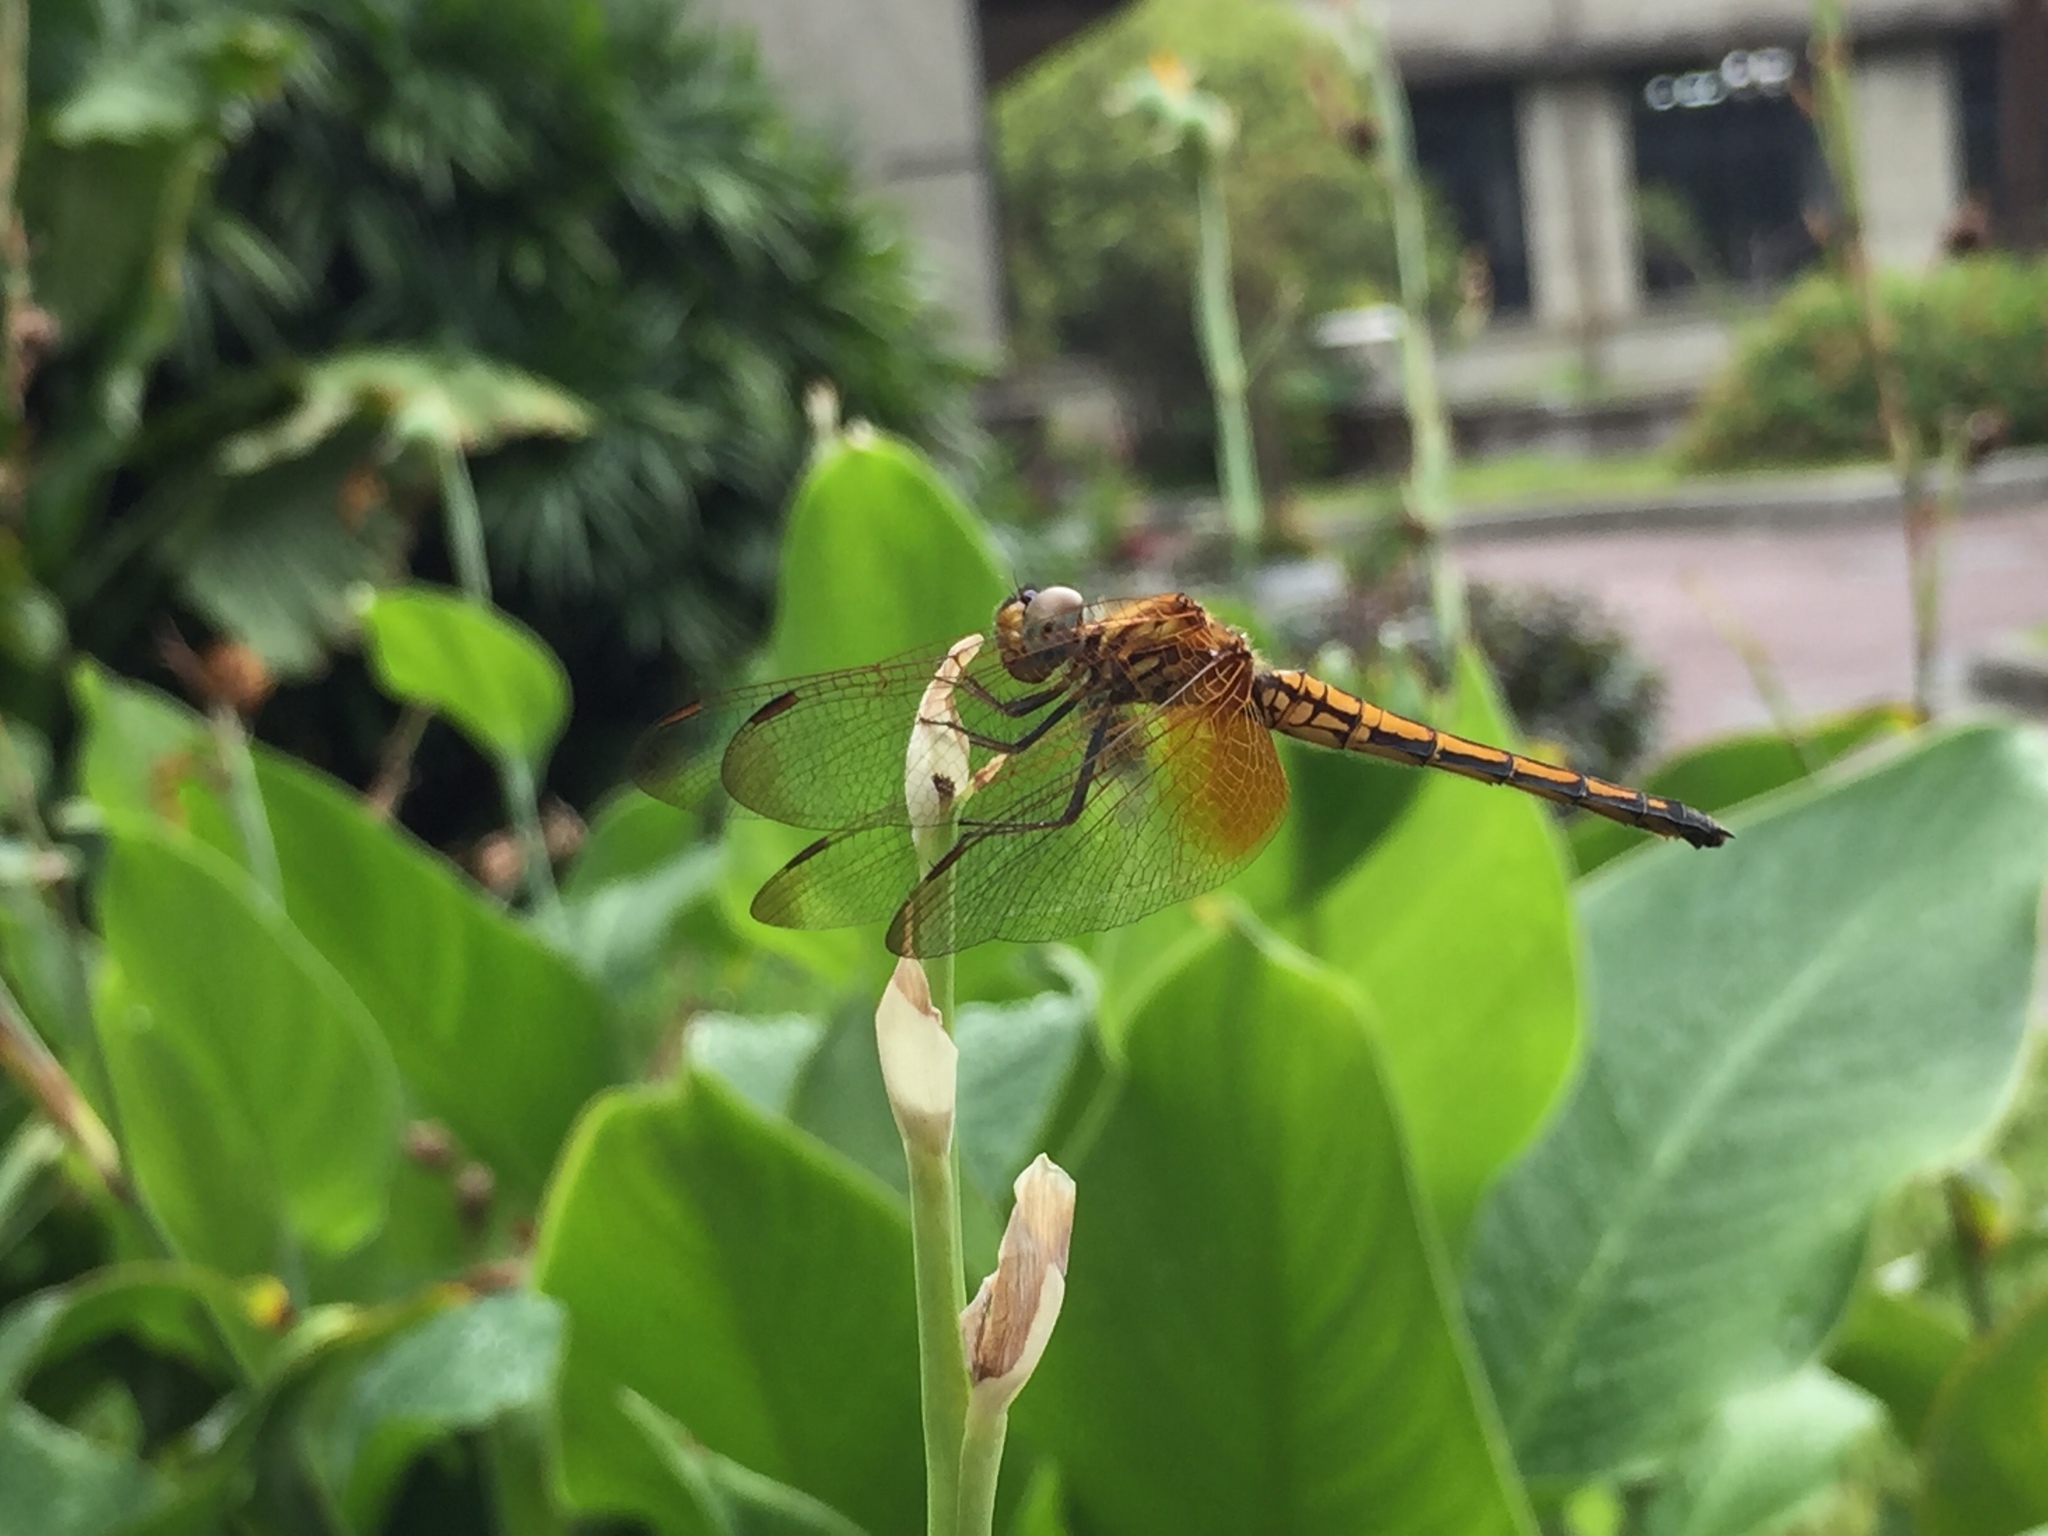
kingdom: Animalia
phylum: Arthropoda
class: Insecta
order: Odonata
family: Libellulidae
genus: Trithemis
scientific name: Trithemis aurora
